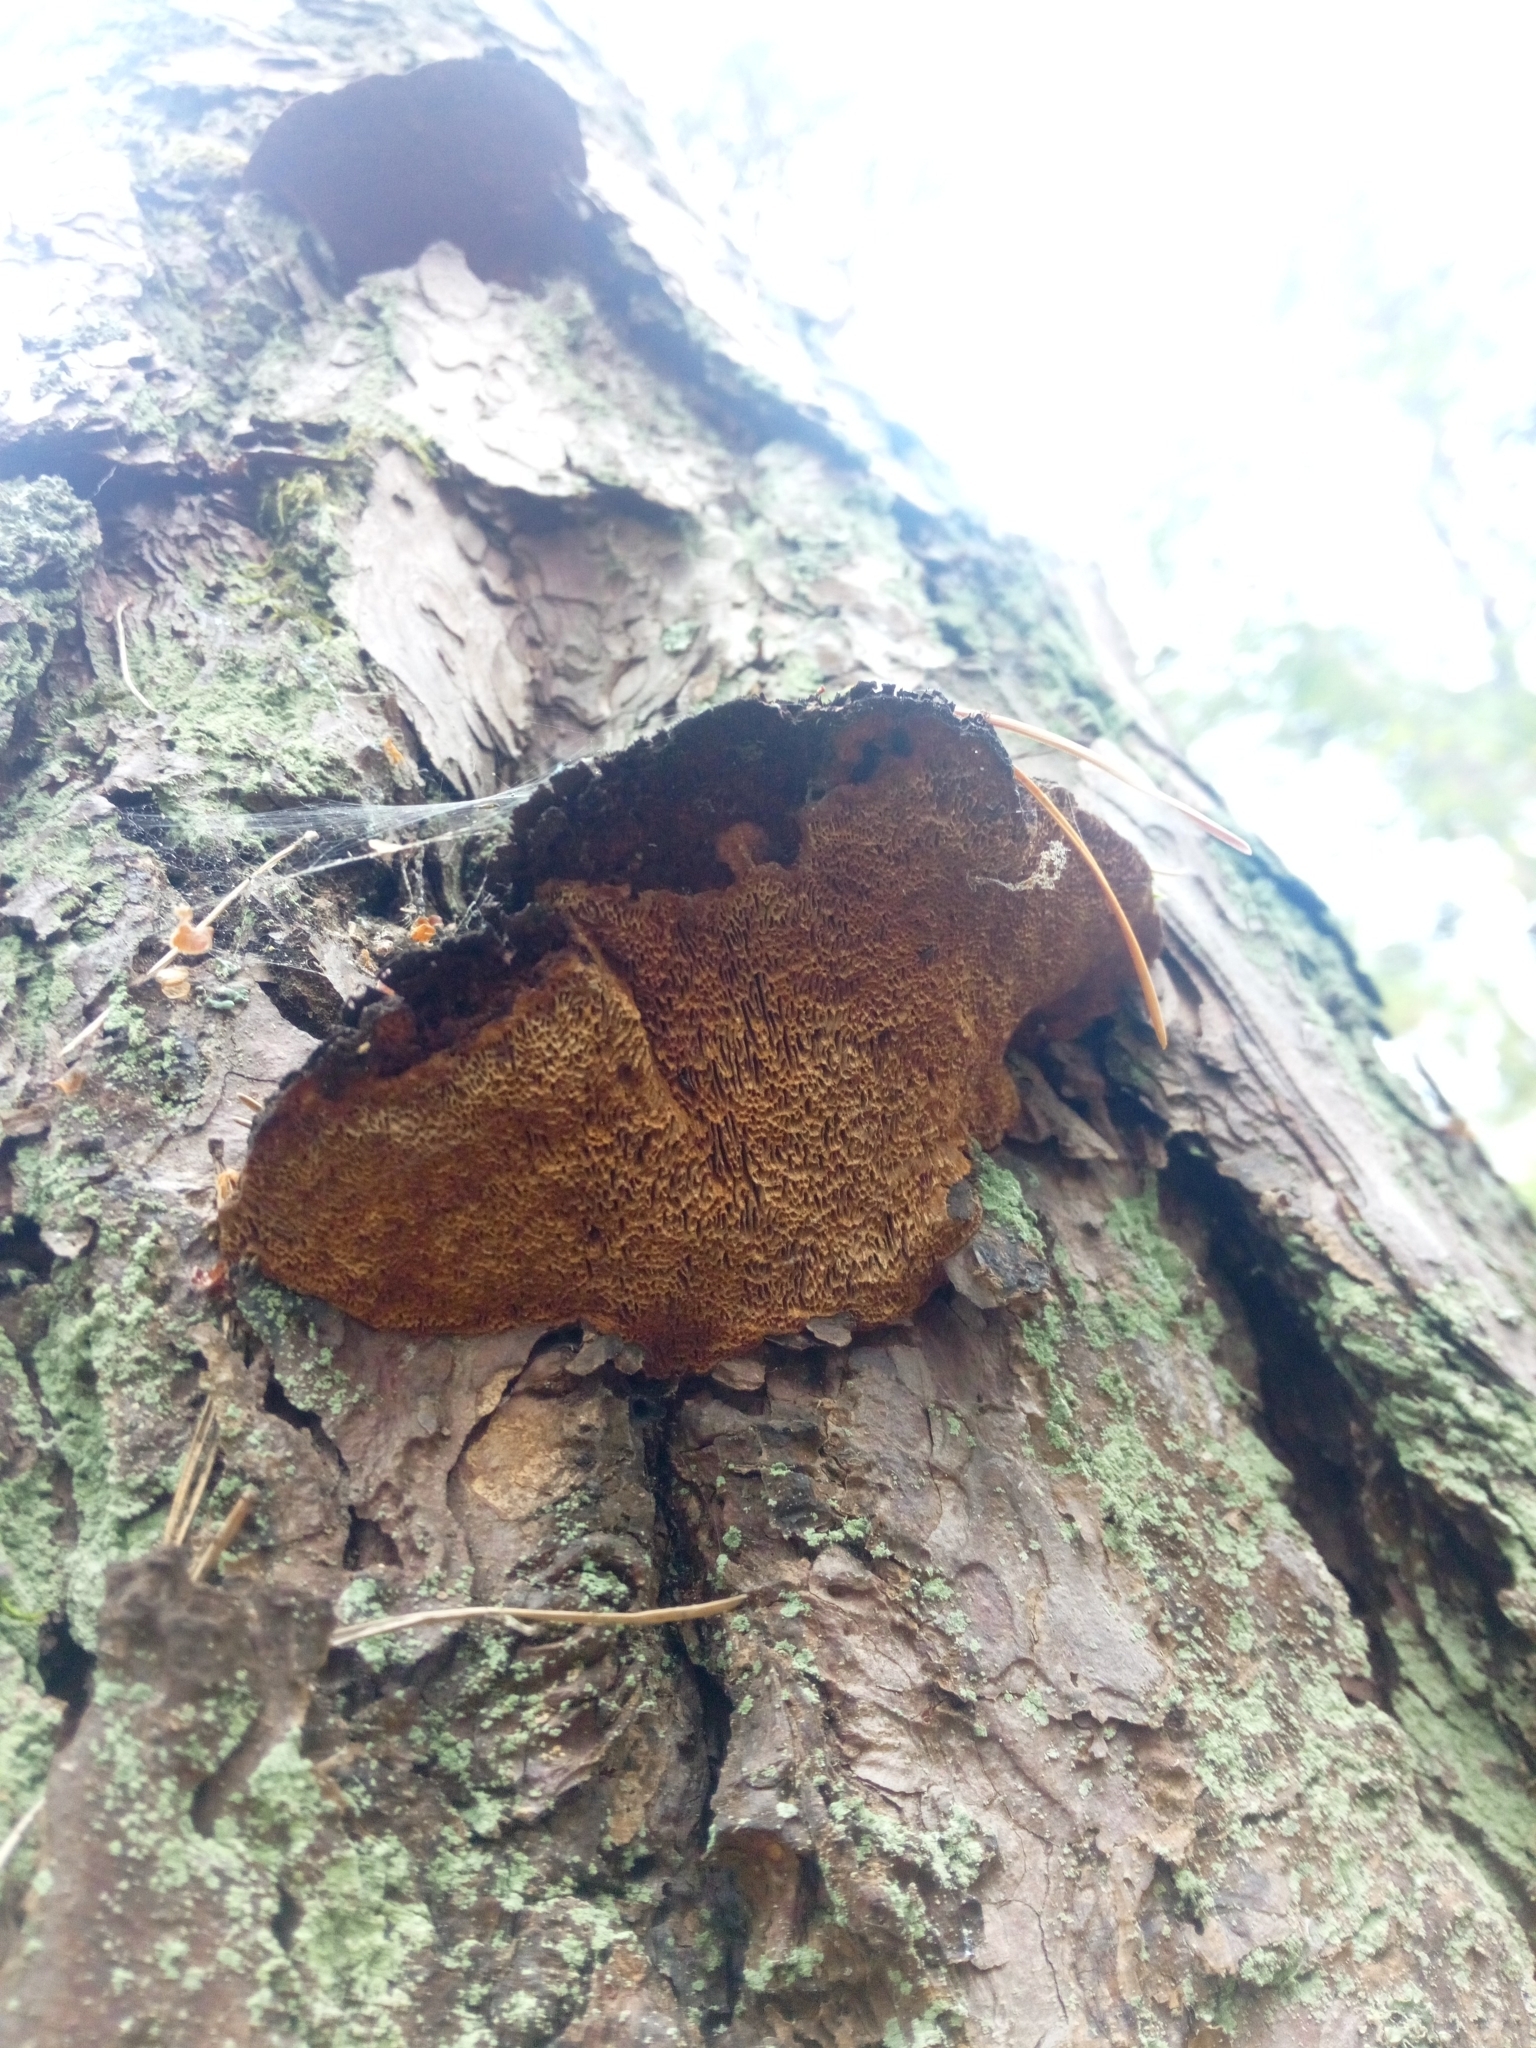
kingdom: Fungi
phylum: Basidiomycota
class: Agaricomycetes
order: Hymenochaetales
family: Hymenochaetaceae
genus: Porodaedalea
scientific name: Porodaedalea pini
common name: Pine bracket
